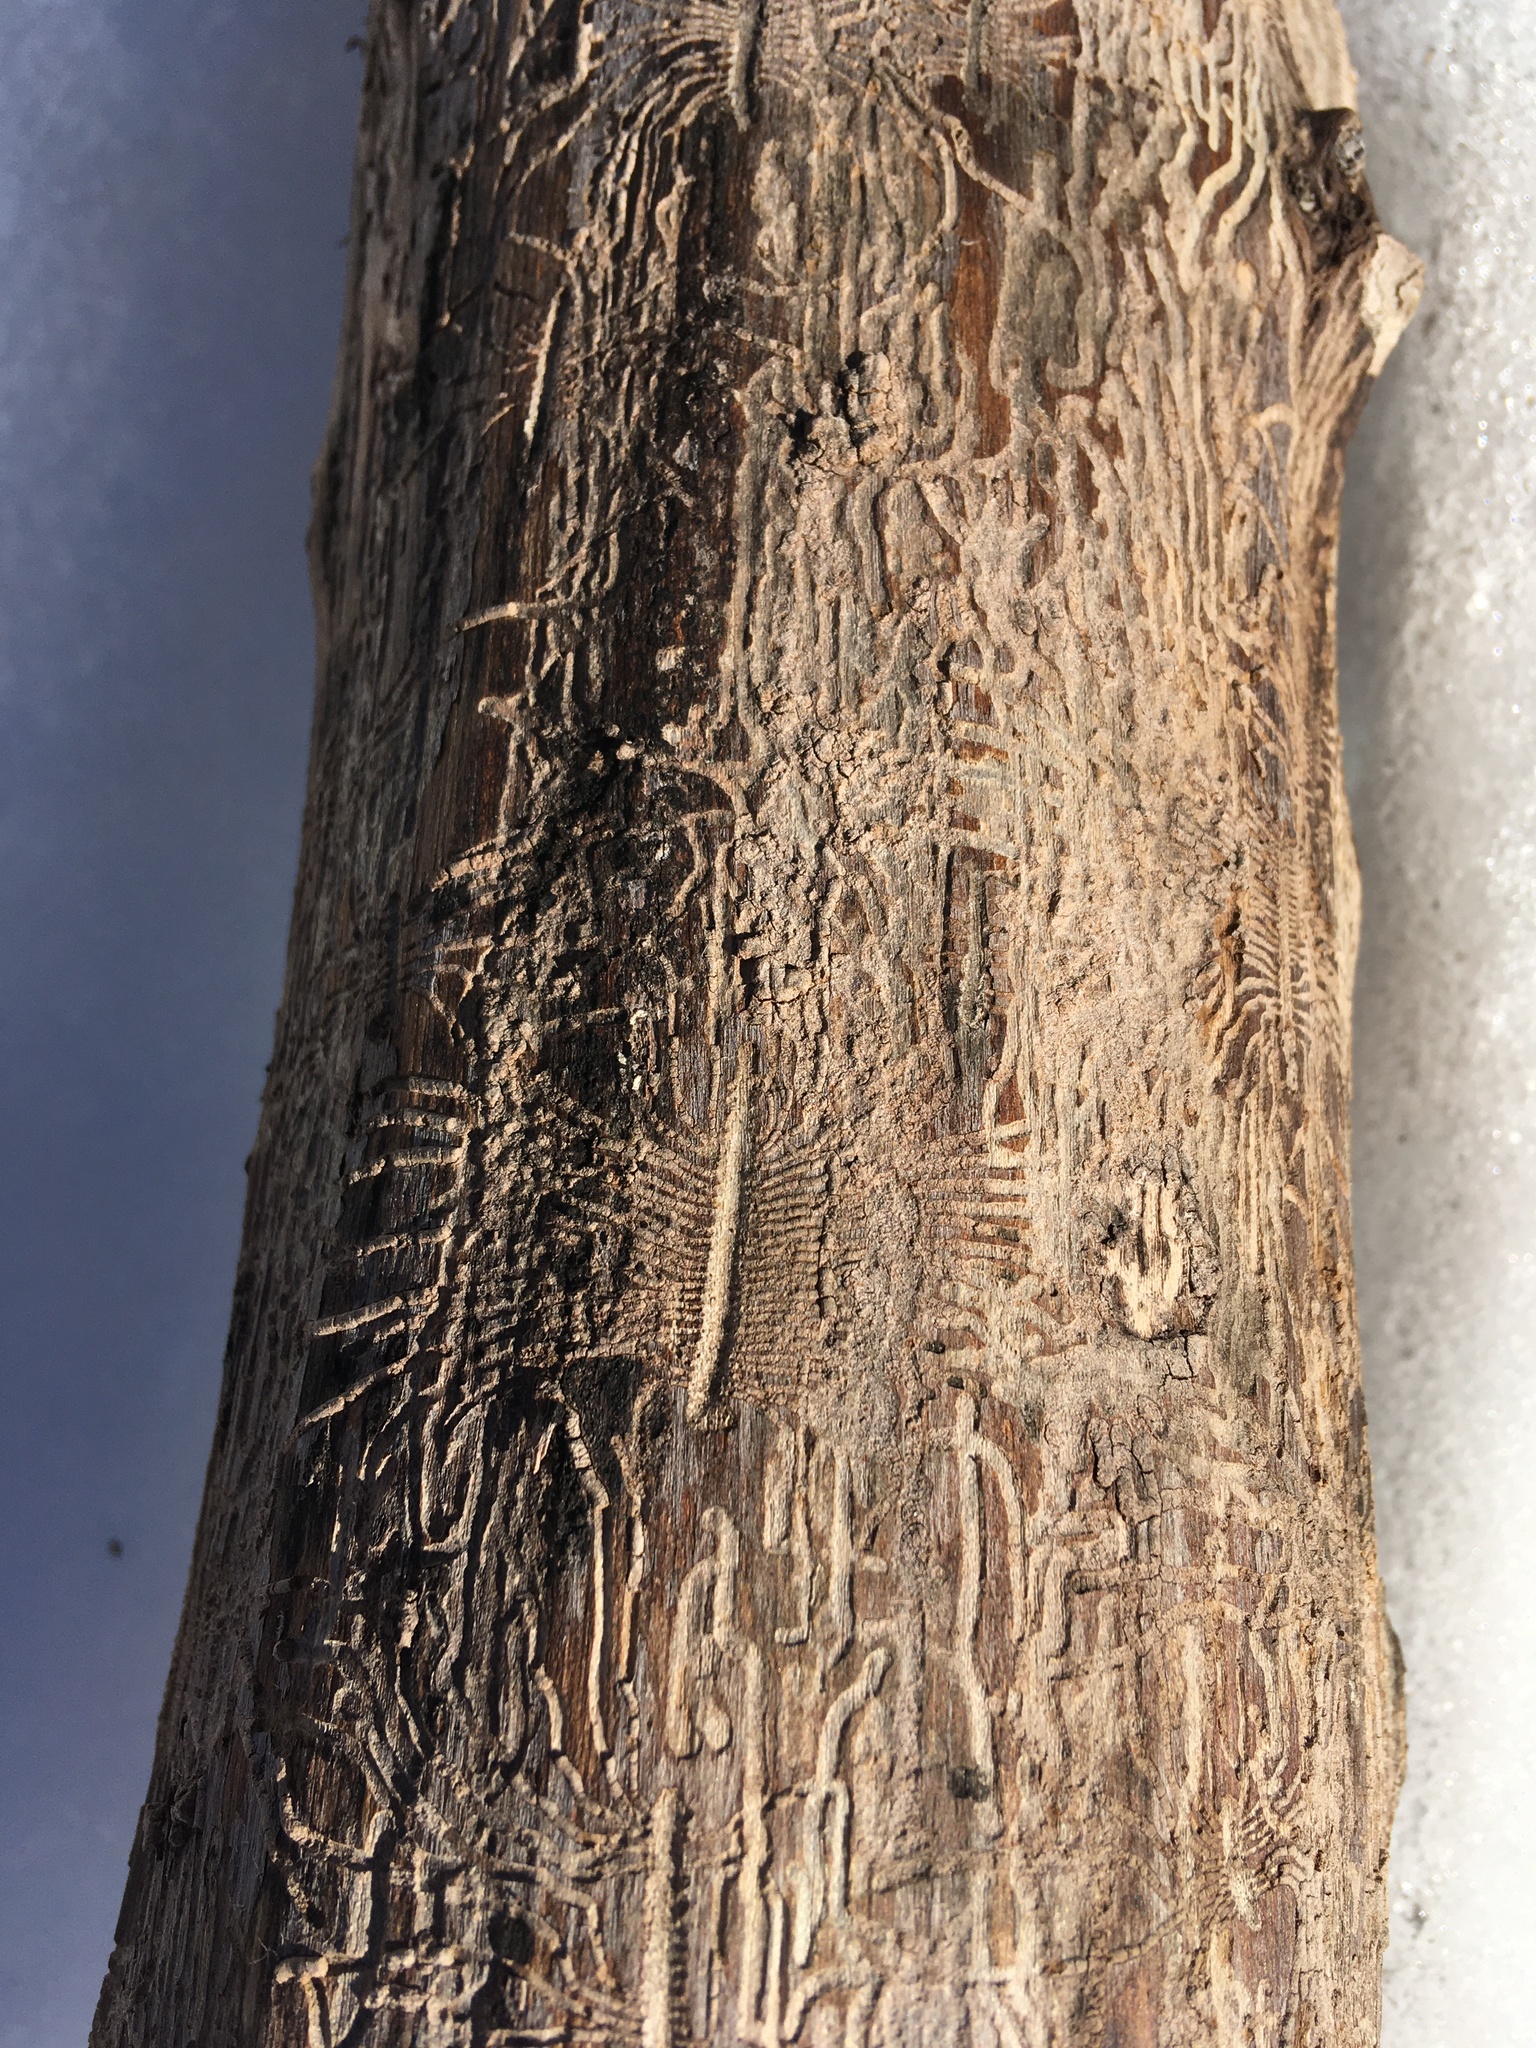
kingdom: Animalia
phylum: Arthropoda
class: Insecta
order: Coleoptera
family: Curculionidae
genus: Scolytus
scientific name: Scolytus multistriatus
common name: European elm bark beetle
